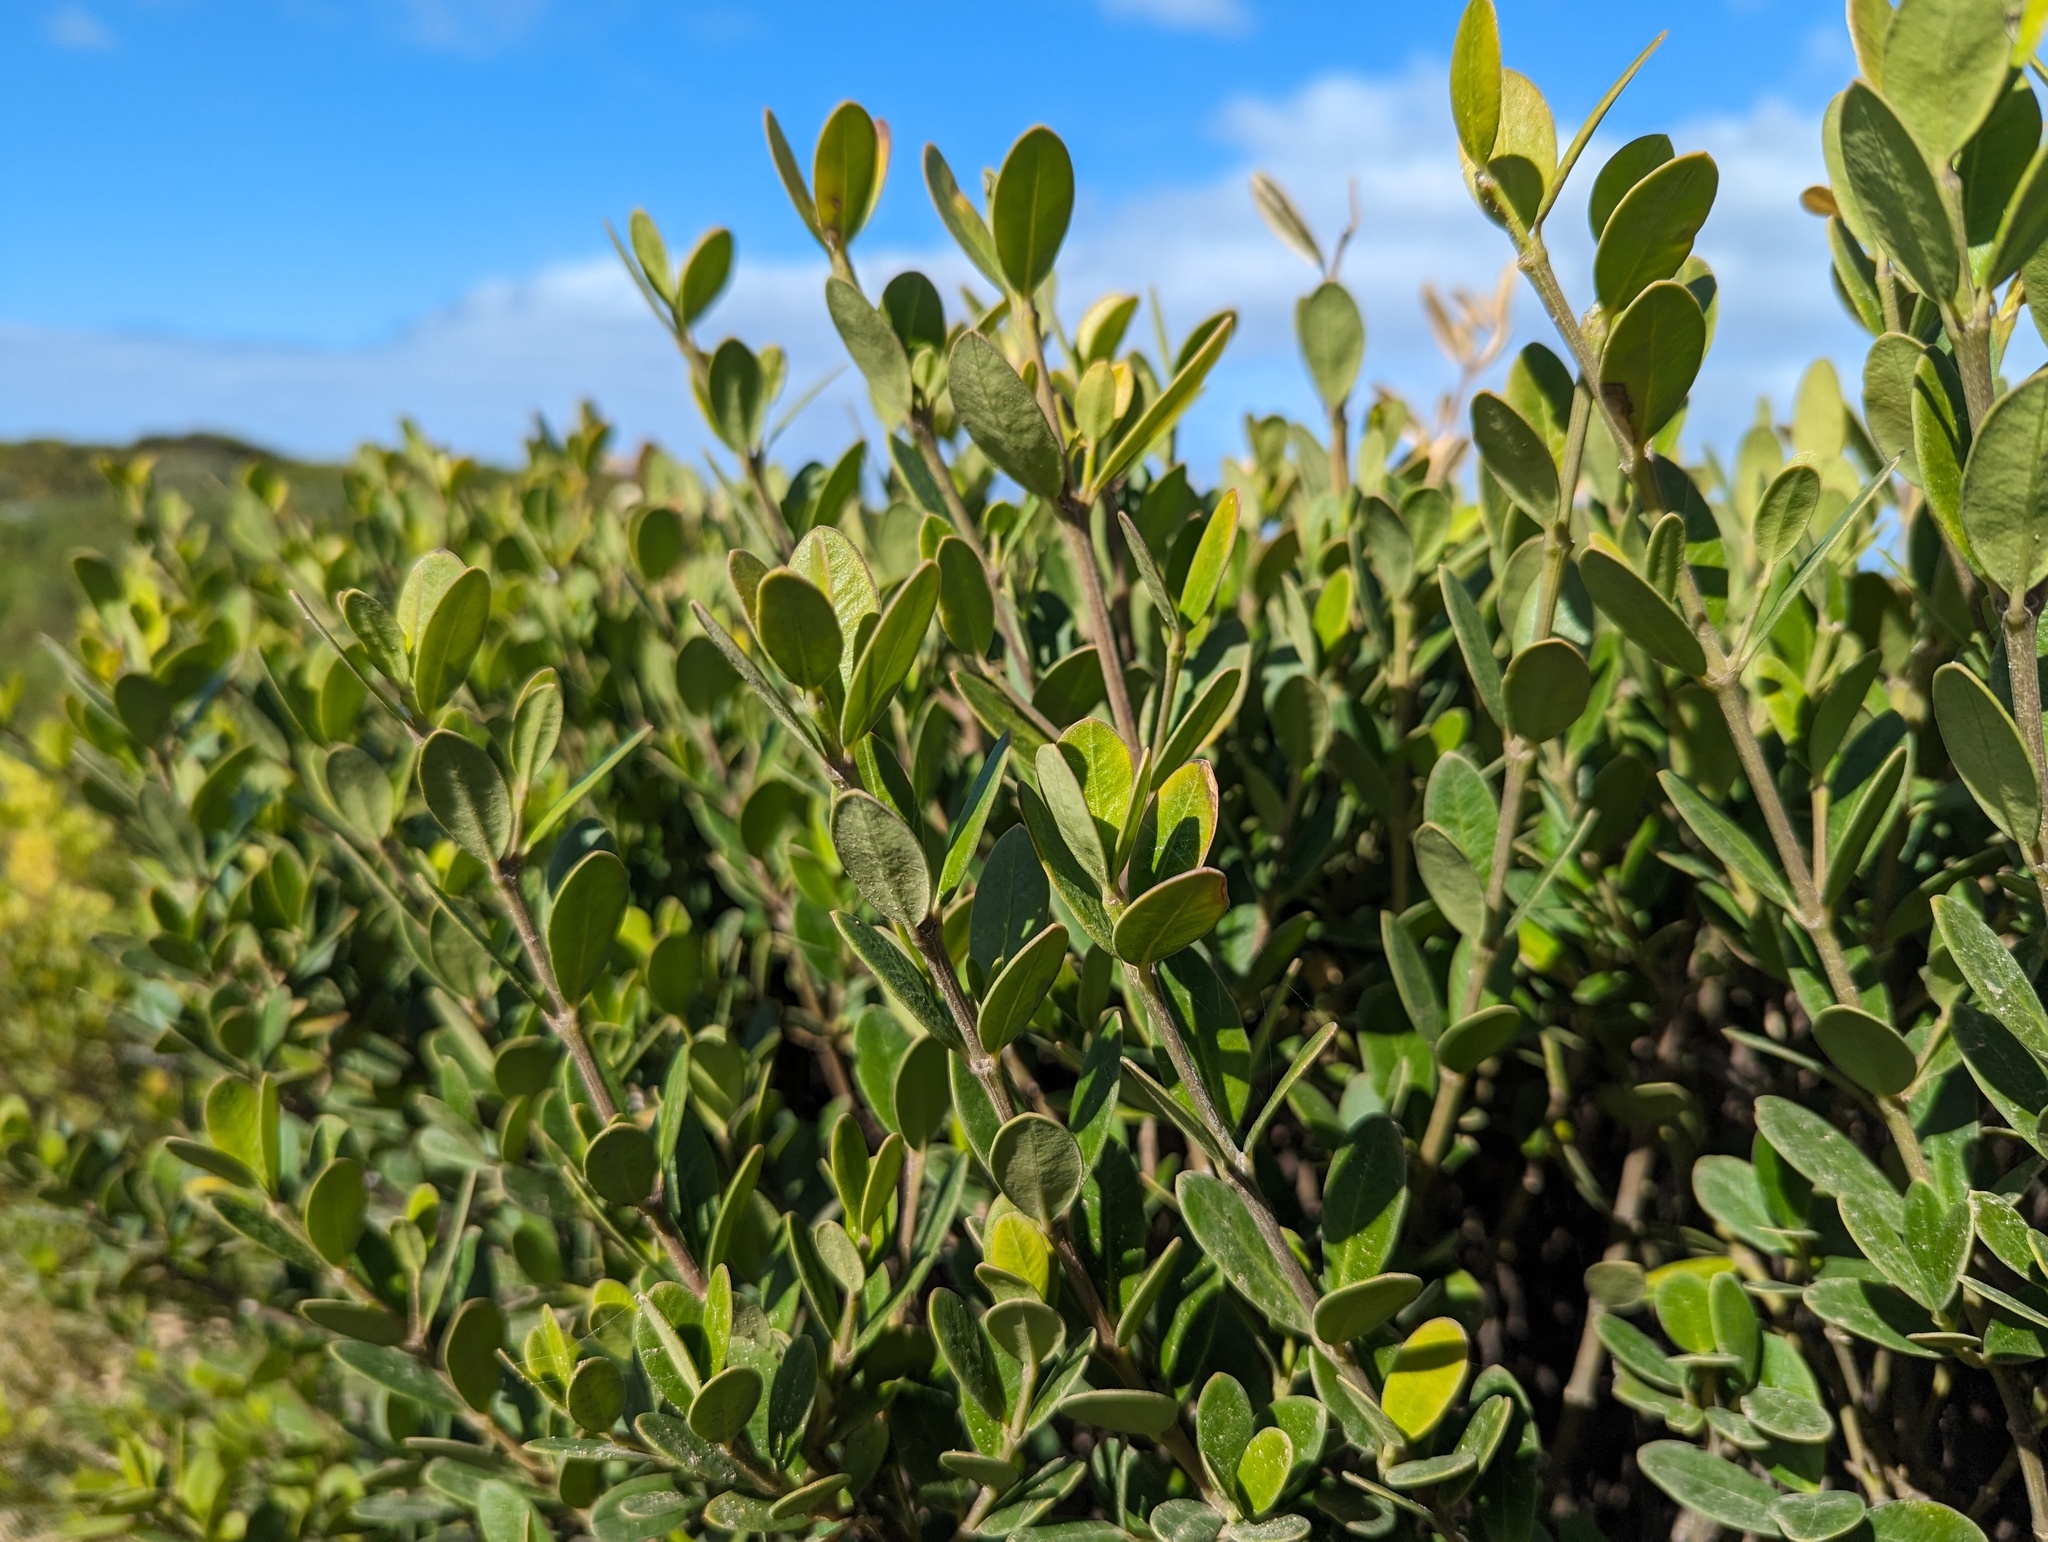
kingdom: Plantae
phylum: Tracheophyta
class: Magnoliopsida
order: Gentianales
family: Apocynaceae
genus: Alyxia
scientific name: Alyxia buxifolia
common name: Dysentery-bush
